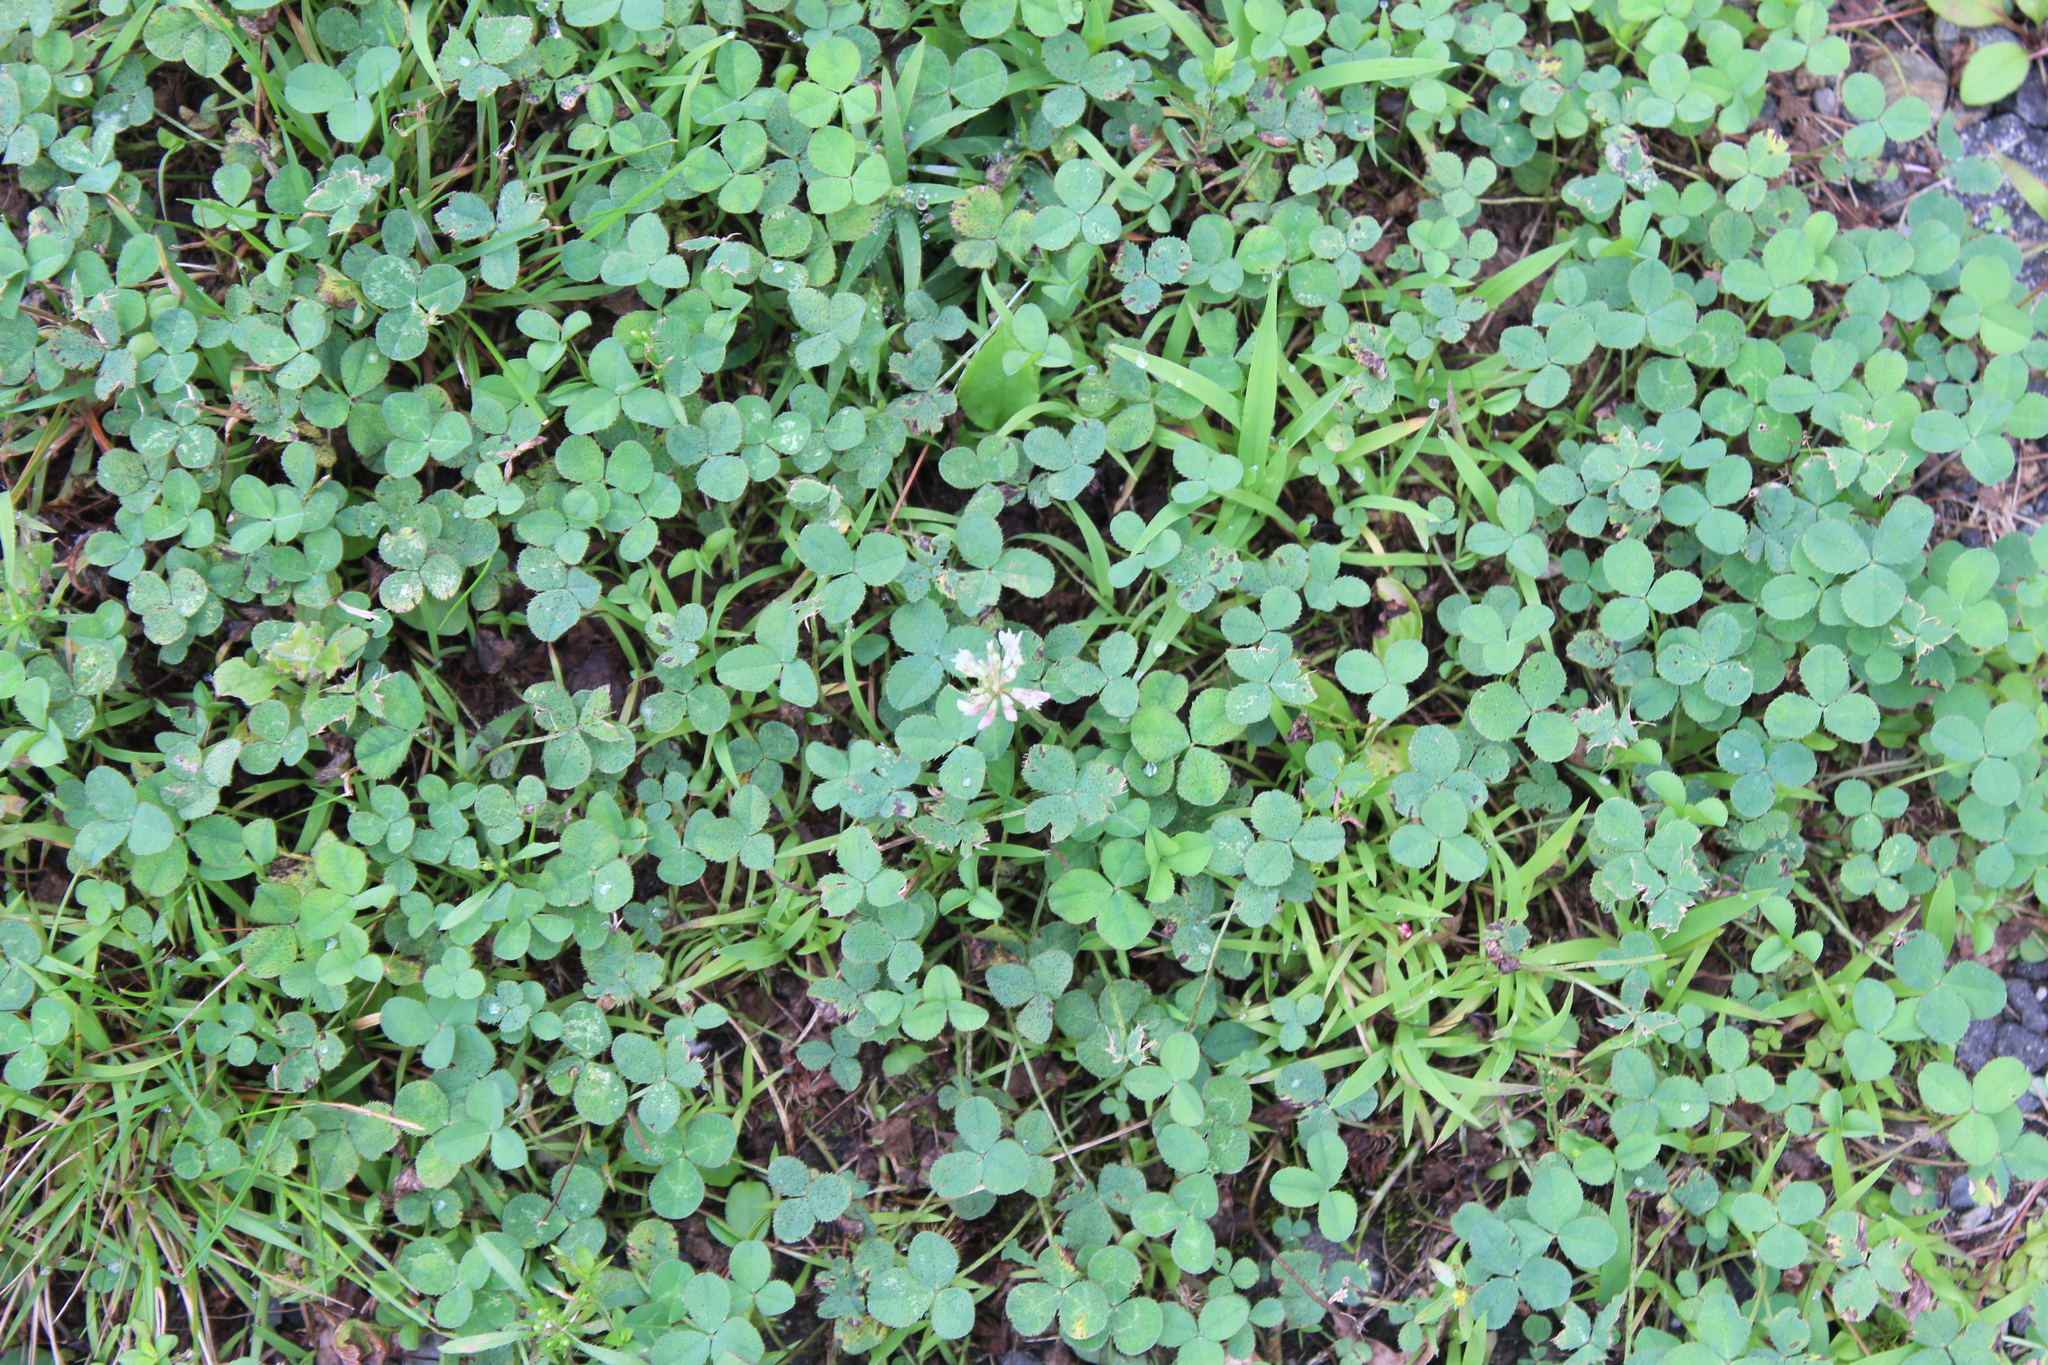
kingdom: Plantae
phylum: Tracheophyta
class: Magnoliopsida
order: Fabales
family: Fabaceae
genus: Trifolium
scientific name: Trifolium repens
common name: White clover
